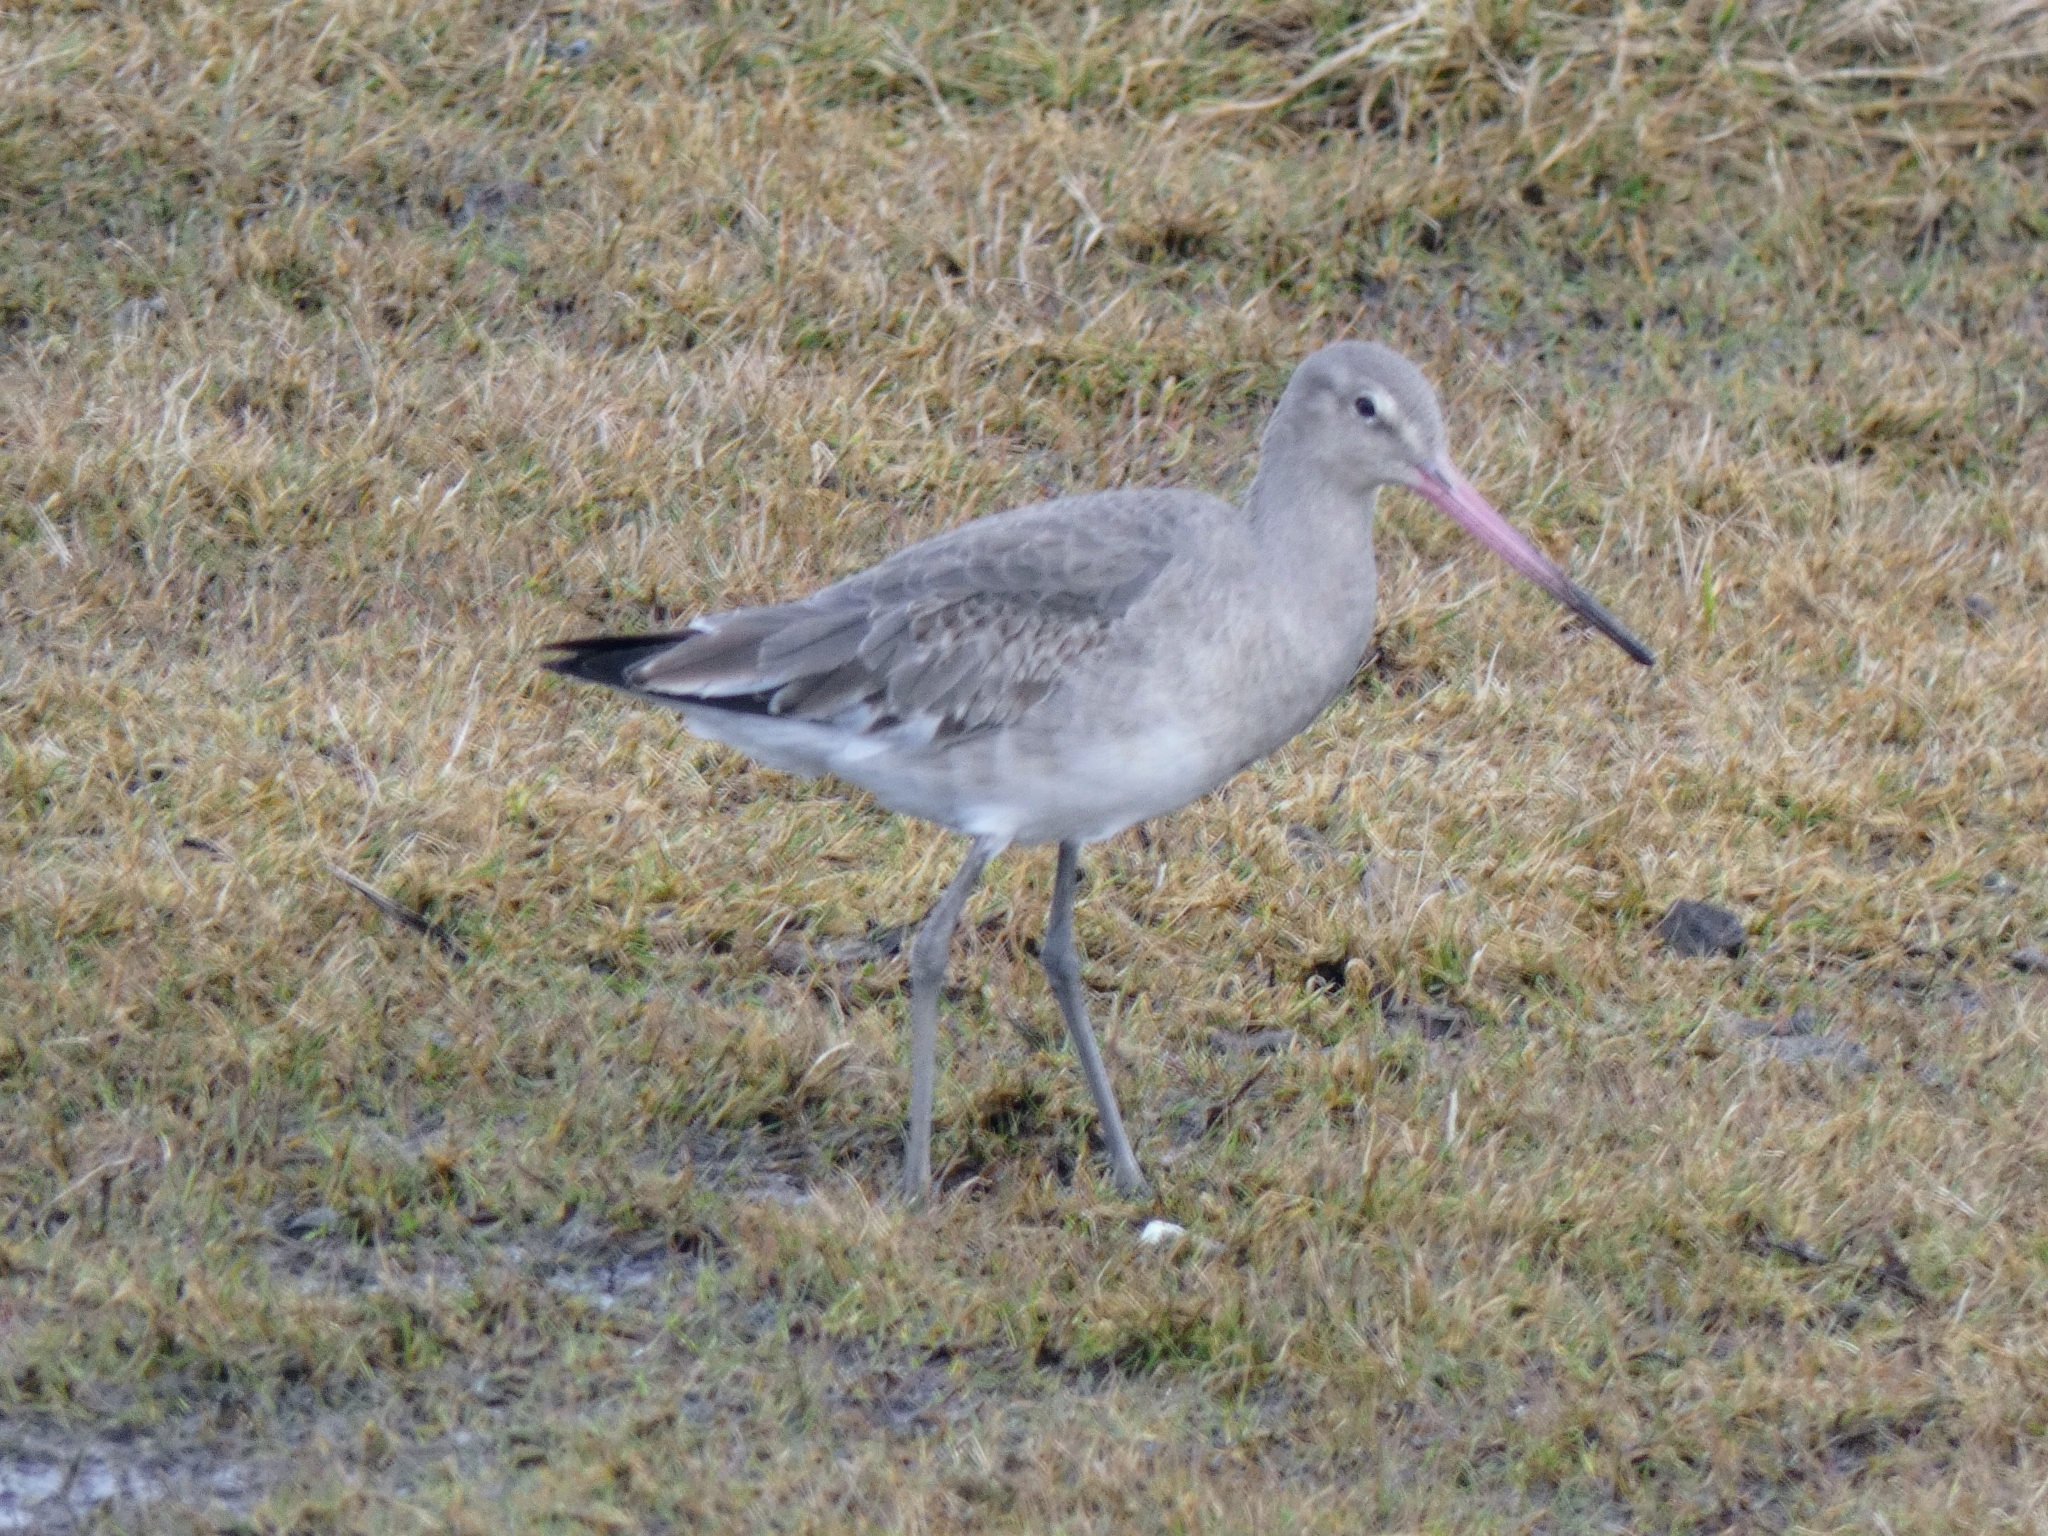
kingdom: Animalia
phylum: Chordata
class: Aves
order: Charadriiformes
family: Scolopacidae
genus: Limosa
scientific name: Limosa limosa
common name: Black-tailed godwit
